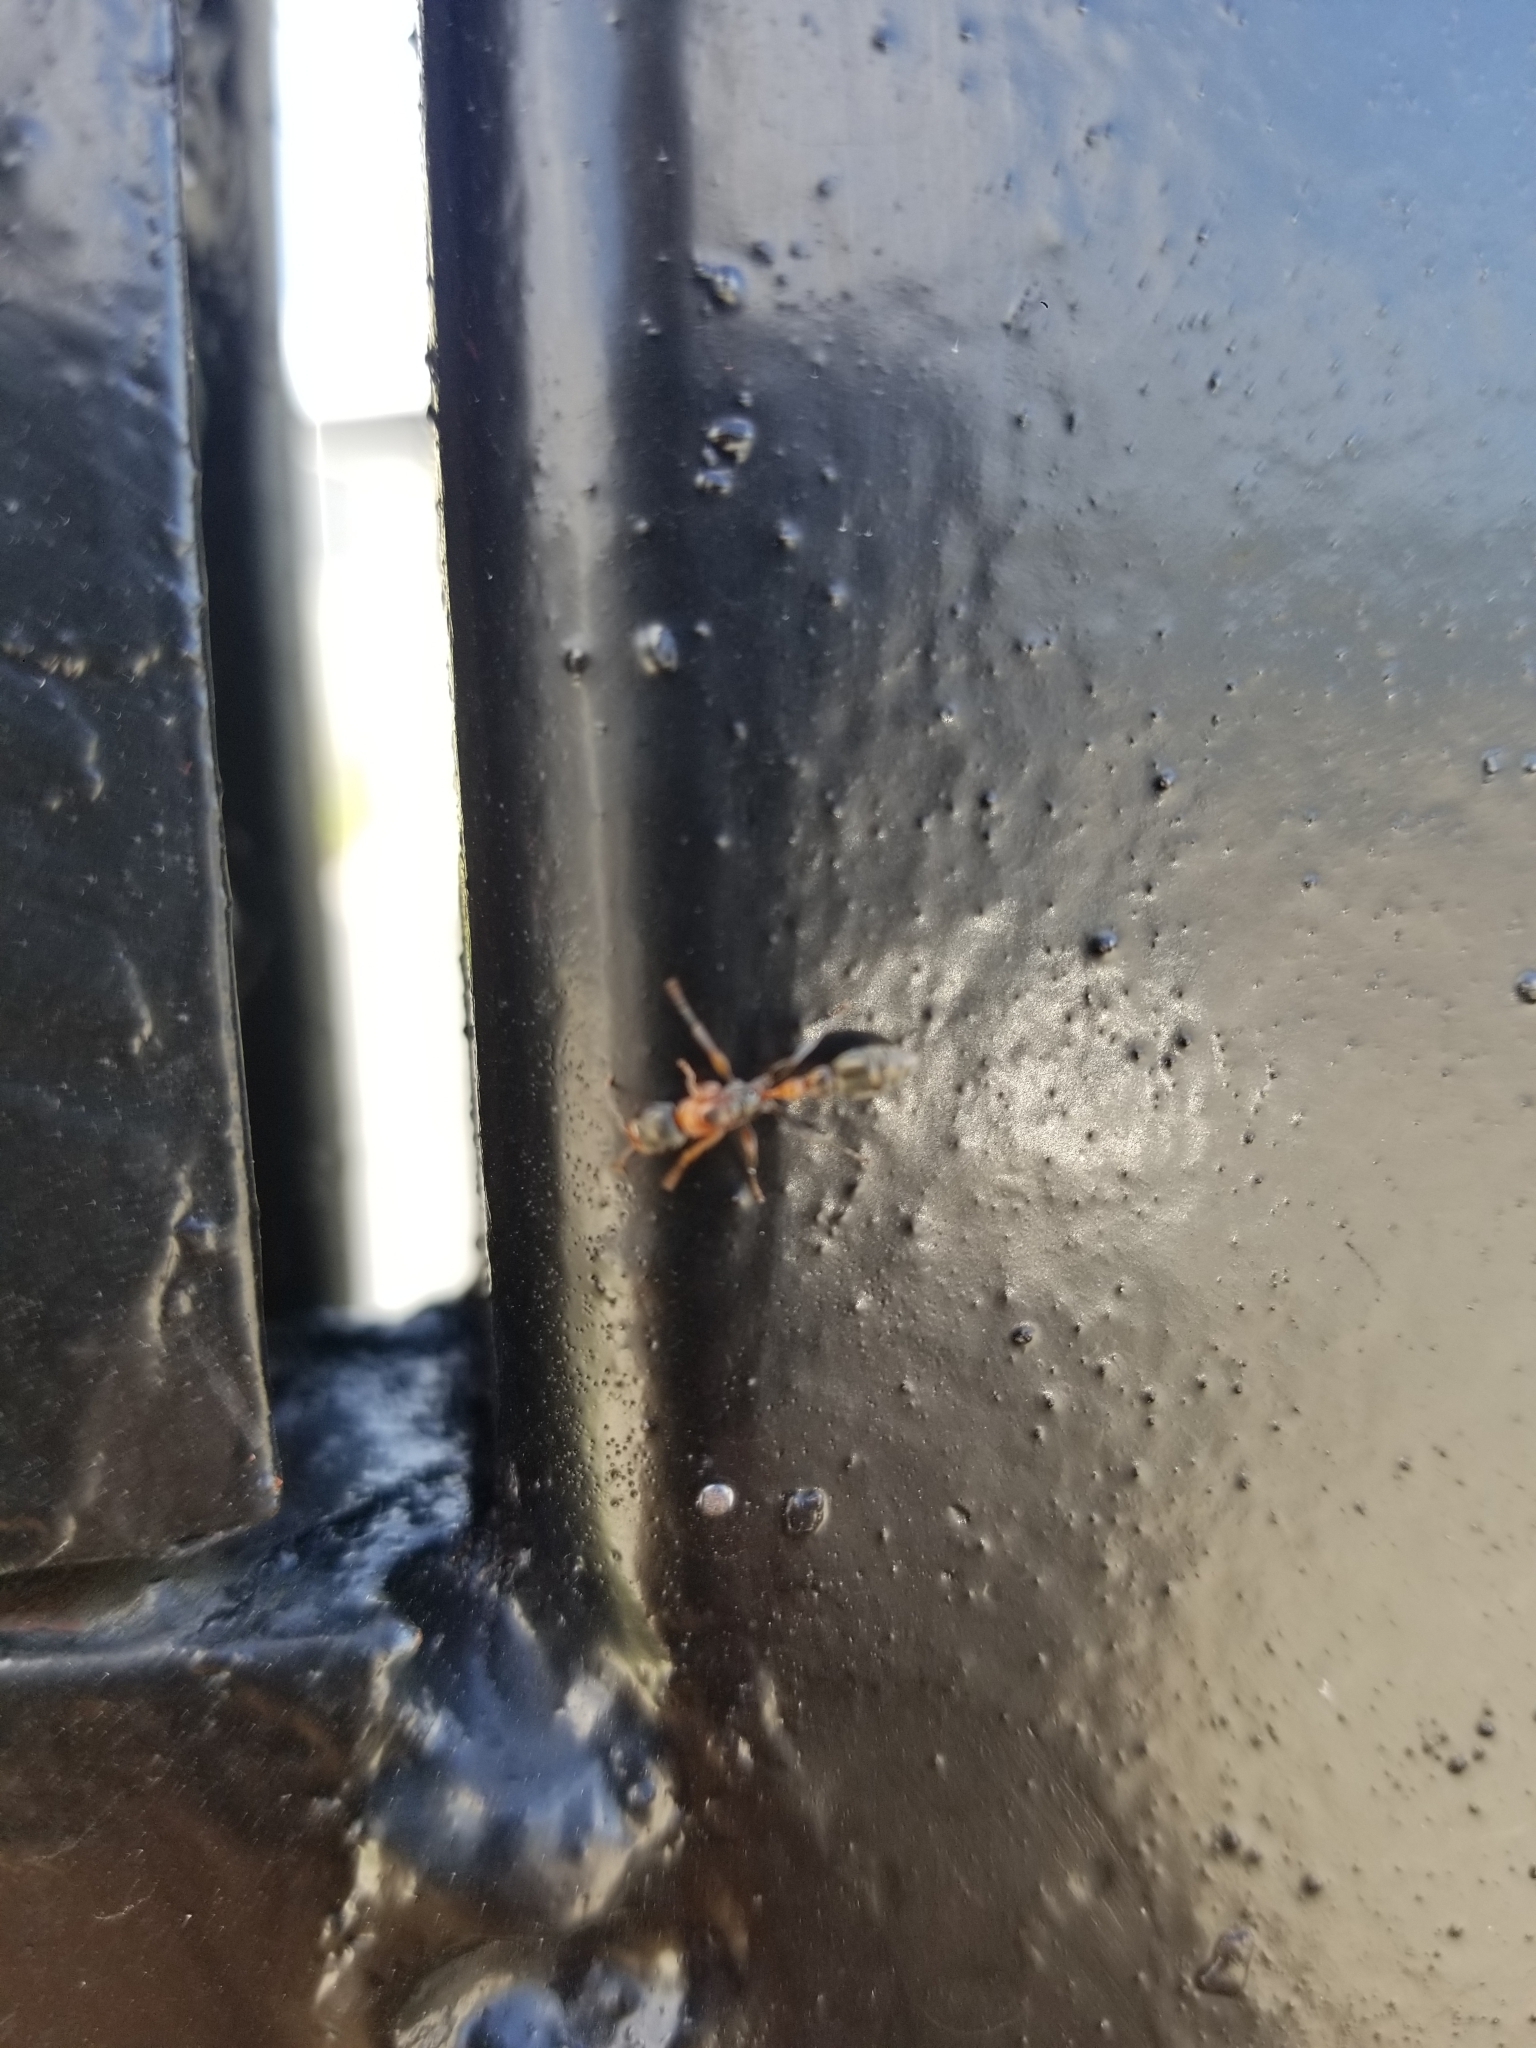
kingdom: Animalia
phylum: Arthropoda
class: Insecta
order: Hymenoptera
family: Formicidae
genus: Pseudomyrmex
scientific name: Pseudomyrmex gracilis
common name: Graceful twig ant
